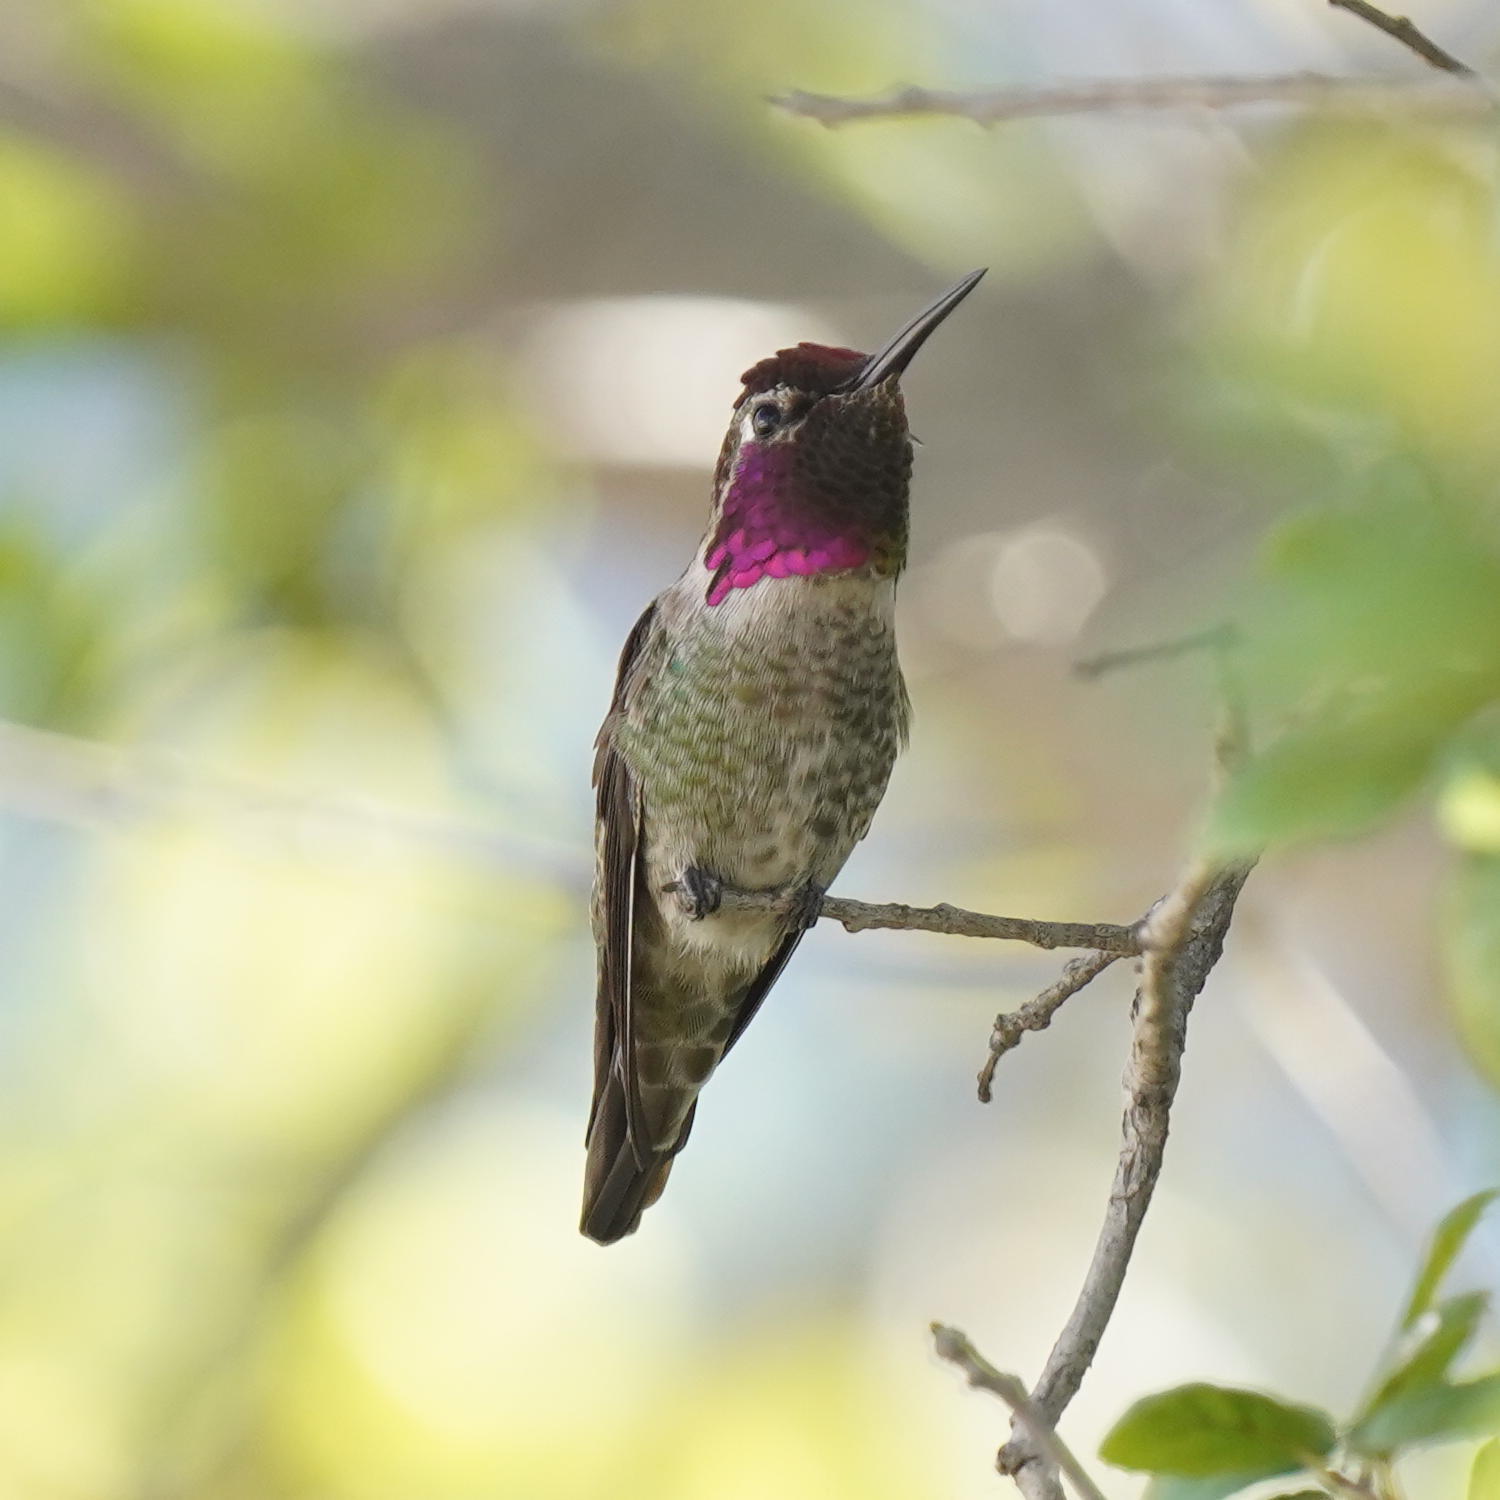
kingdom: Animalia
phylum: Chordata
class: Aves
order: Apodiformes
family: Trochilidae
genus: Calypte
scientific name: Calypte anna
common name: Anna's hummingbird
